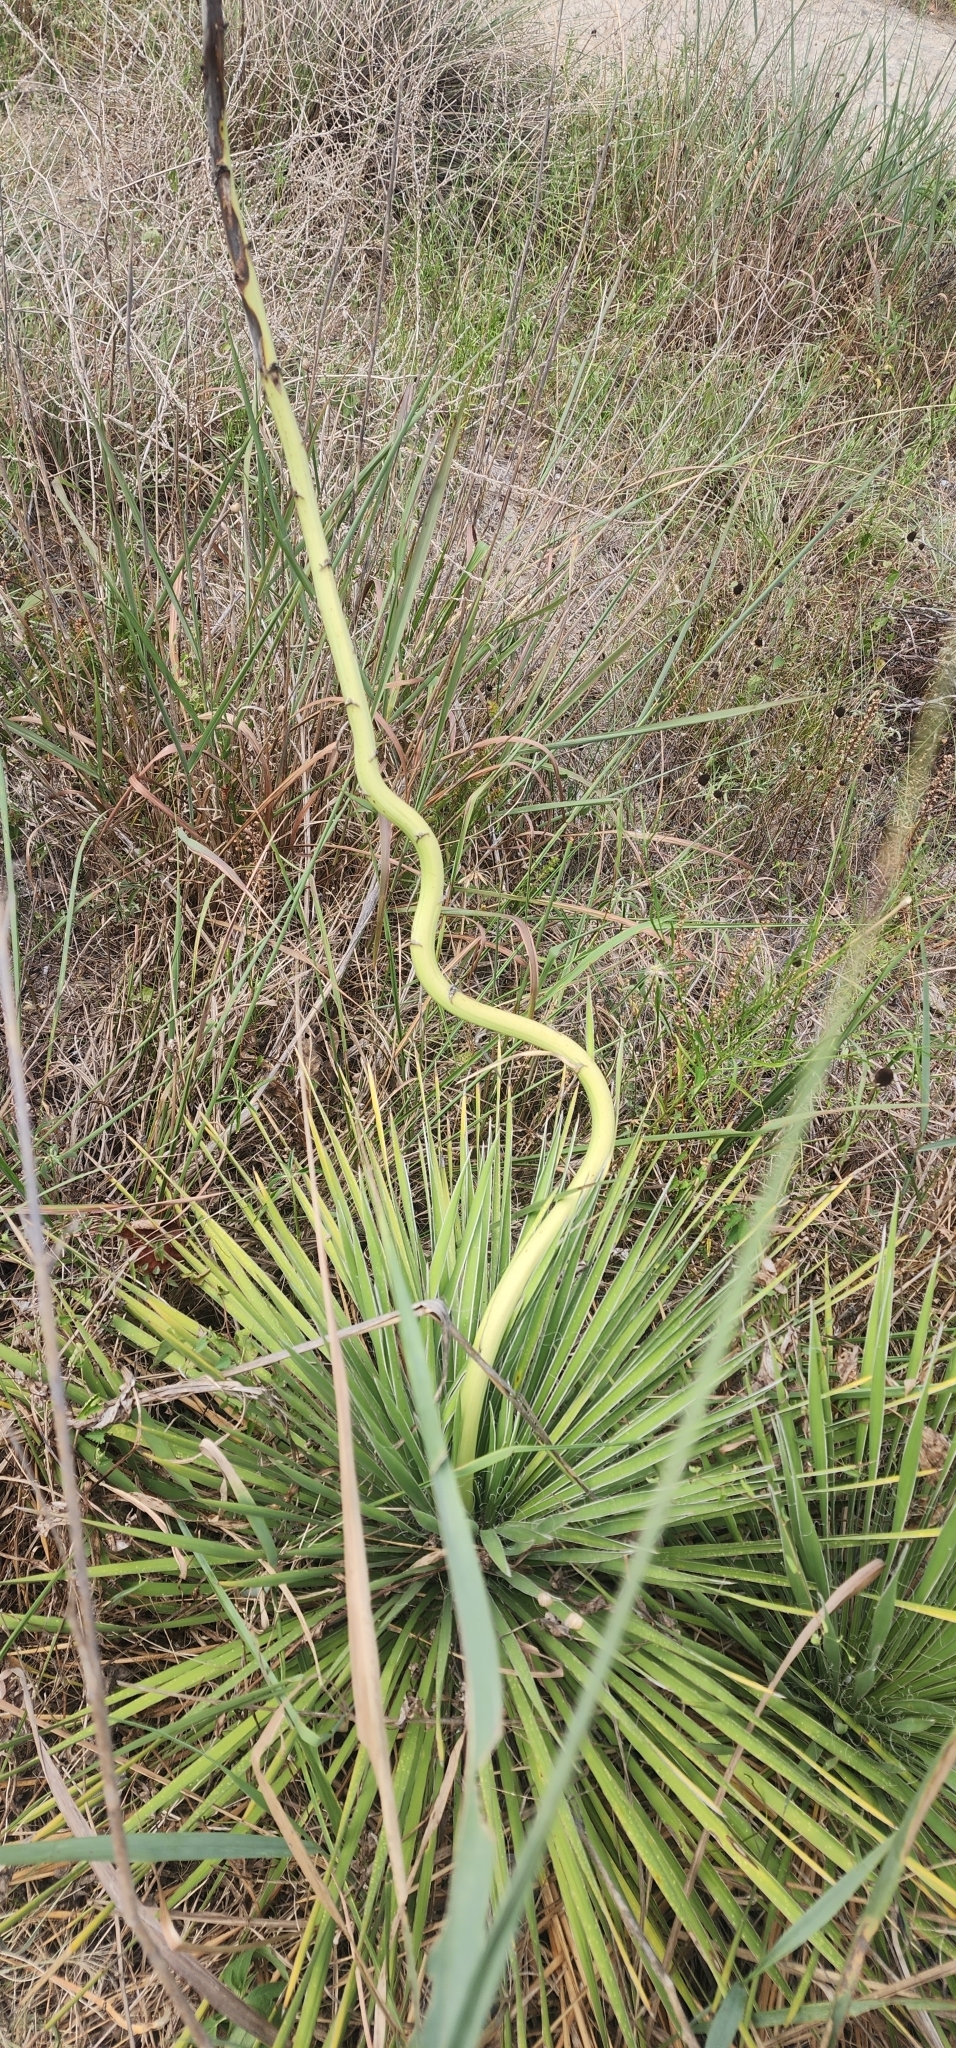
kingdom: Plantae
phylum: Tracheophyta
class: Liliopsida
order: Asparagales
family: Asparagaceae
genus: Yucca
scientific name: Yucca constricta
